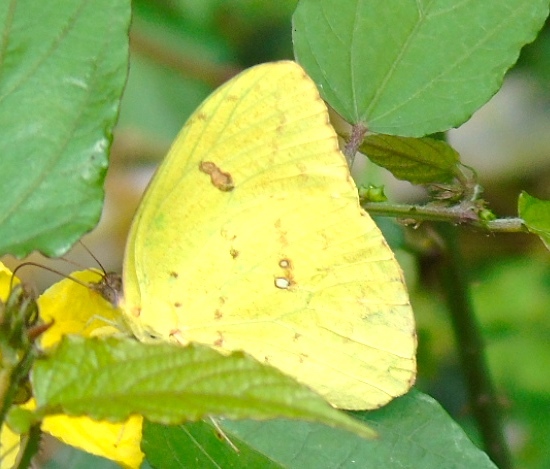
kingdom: Animalia
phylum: Arthropoda
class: Insecta
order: Lepidoptera
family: Pieridae
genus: Phoebis
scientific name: Phoebis sennae
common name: Cloudless sulphur
